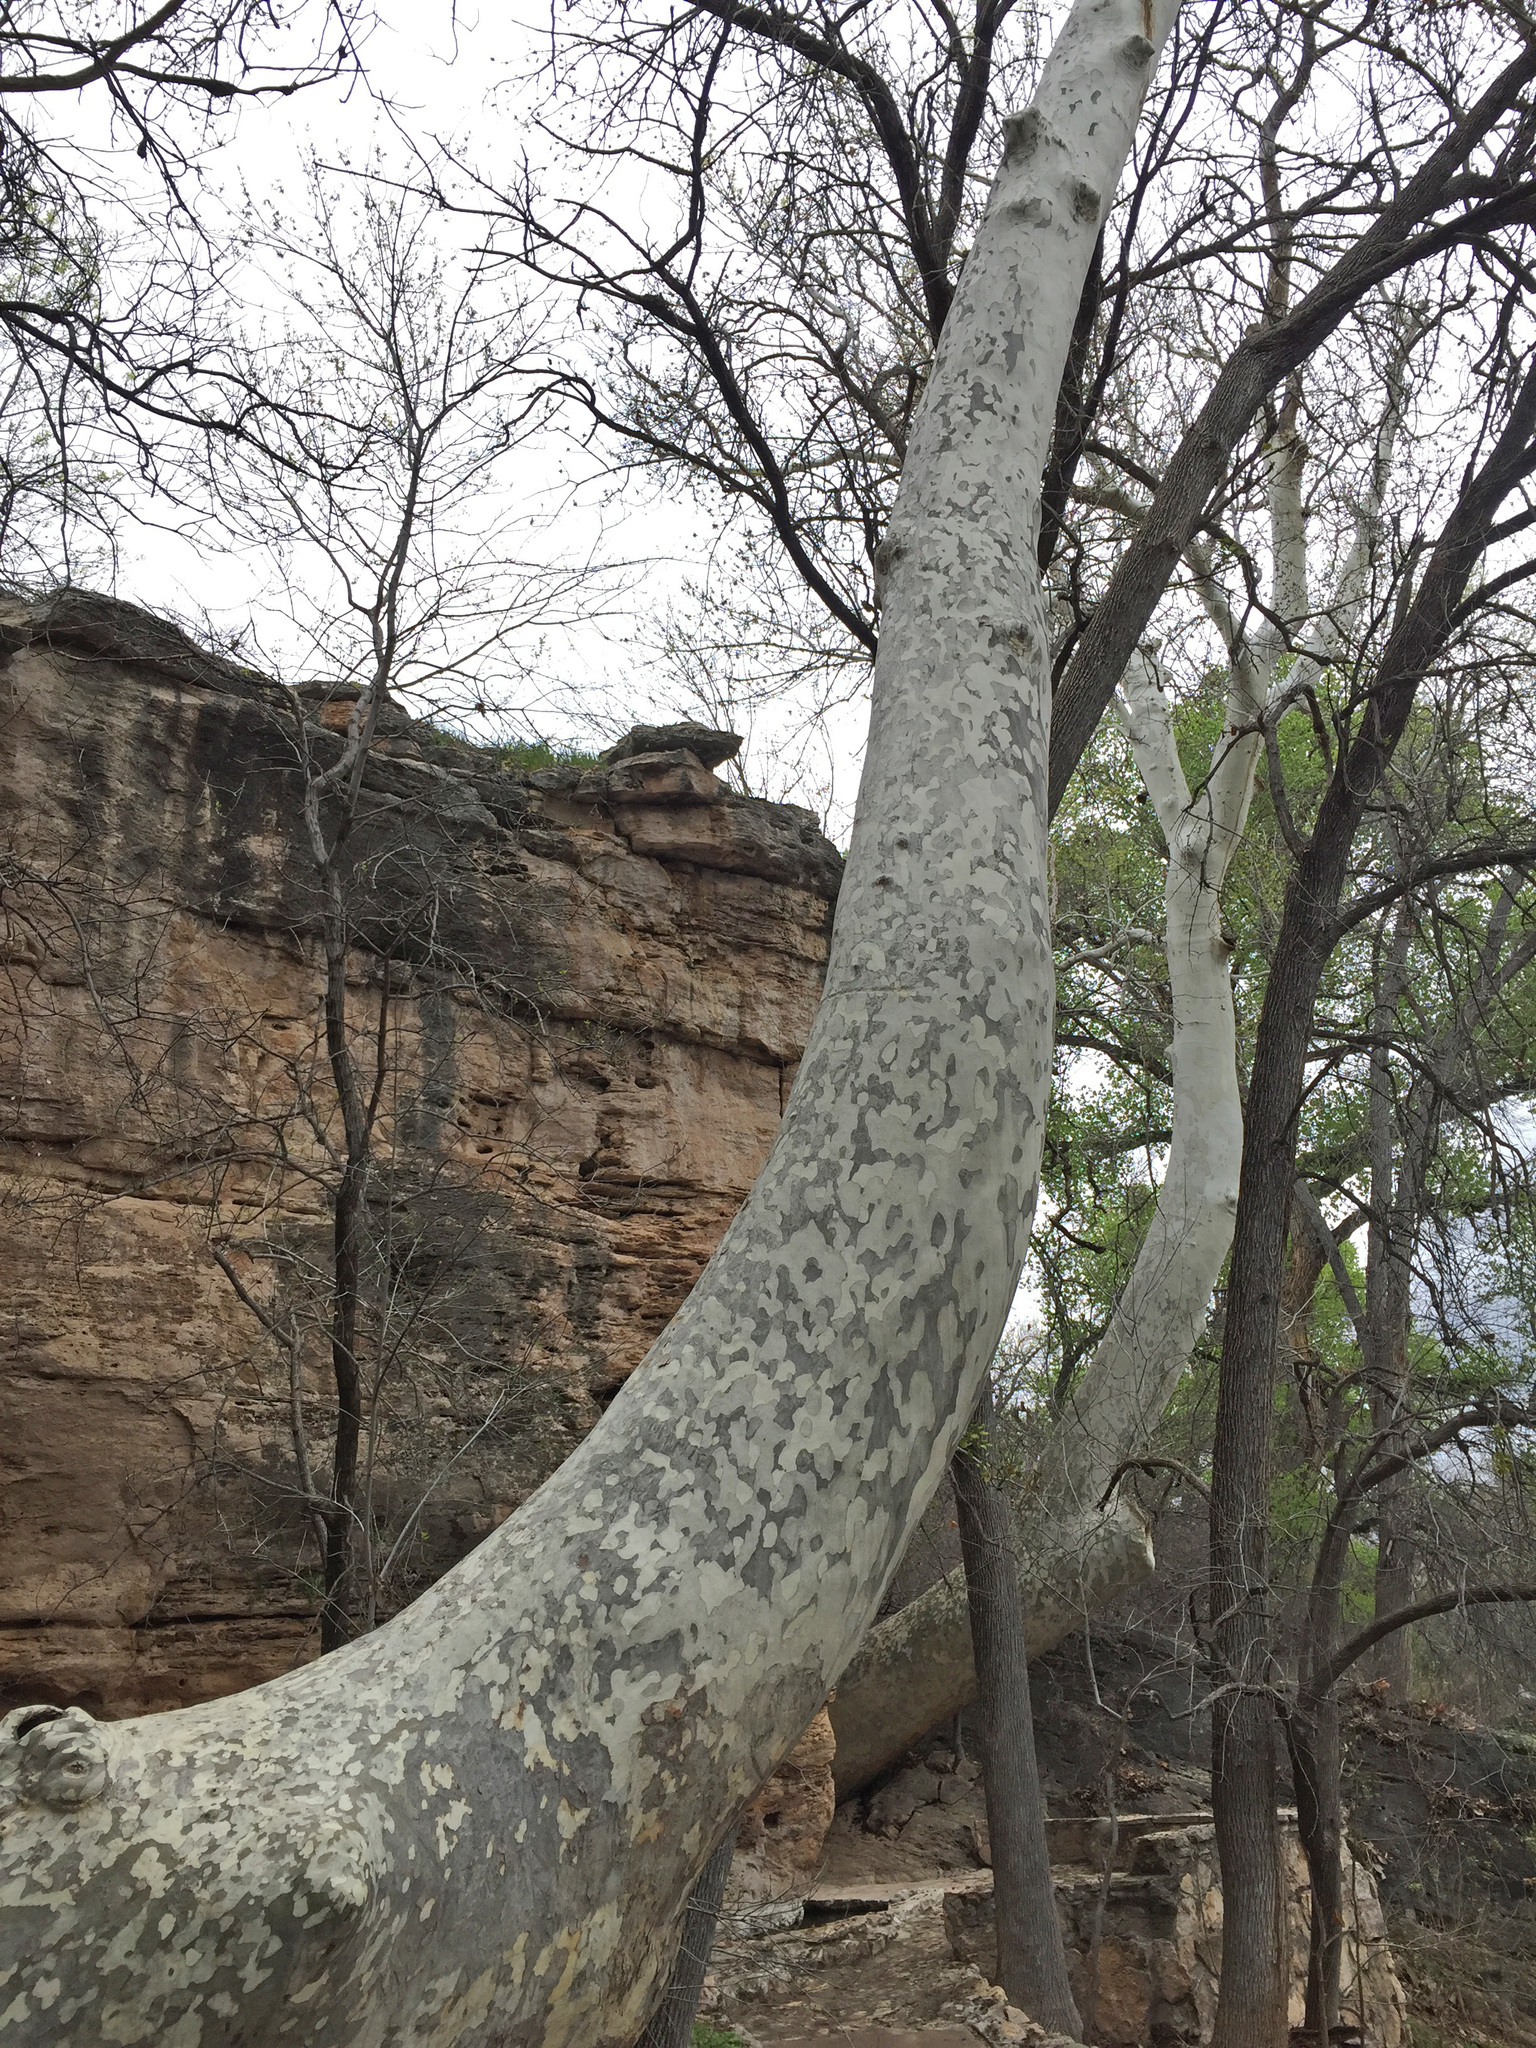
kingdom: Plantae
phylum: Tracheophyta
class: Magnoliopsida
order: Proteales
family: Platanaceae
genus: Platanus
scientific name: Platanus wrightii
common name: Arizona sycamore
